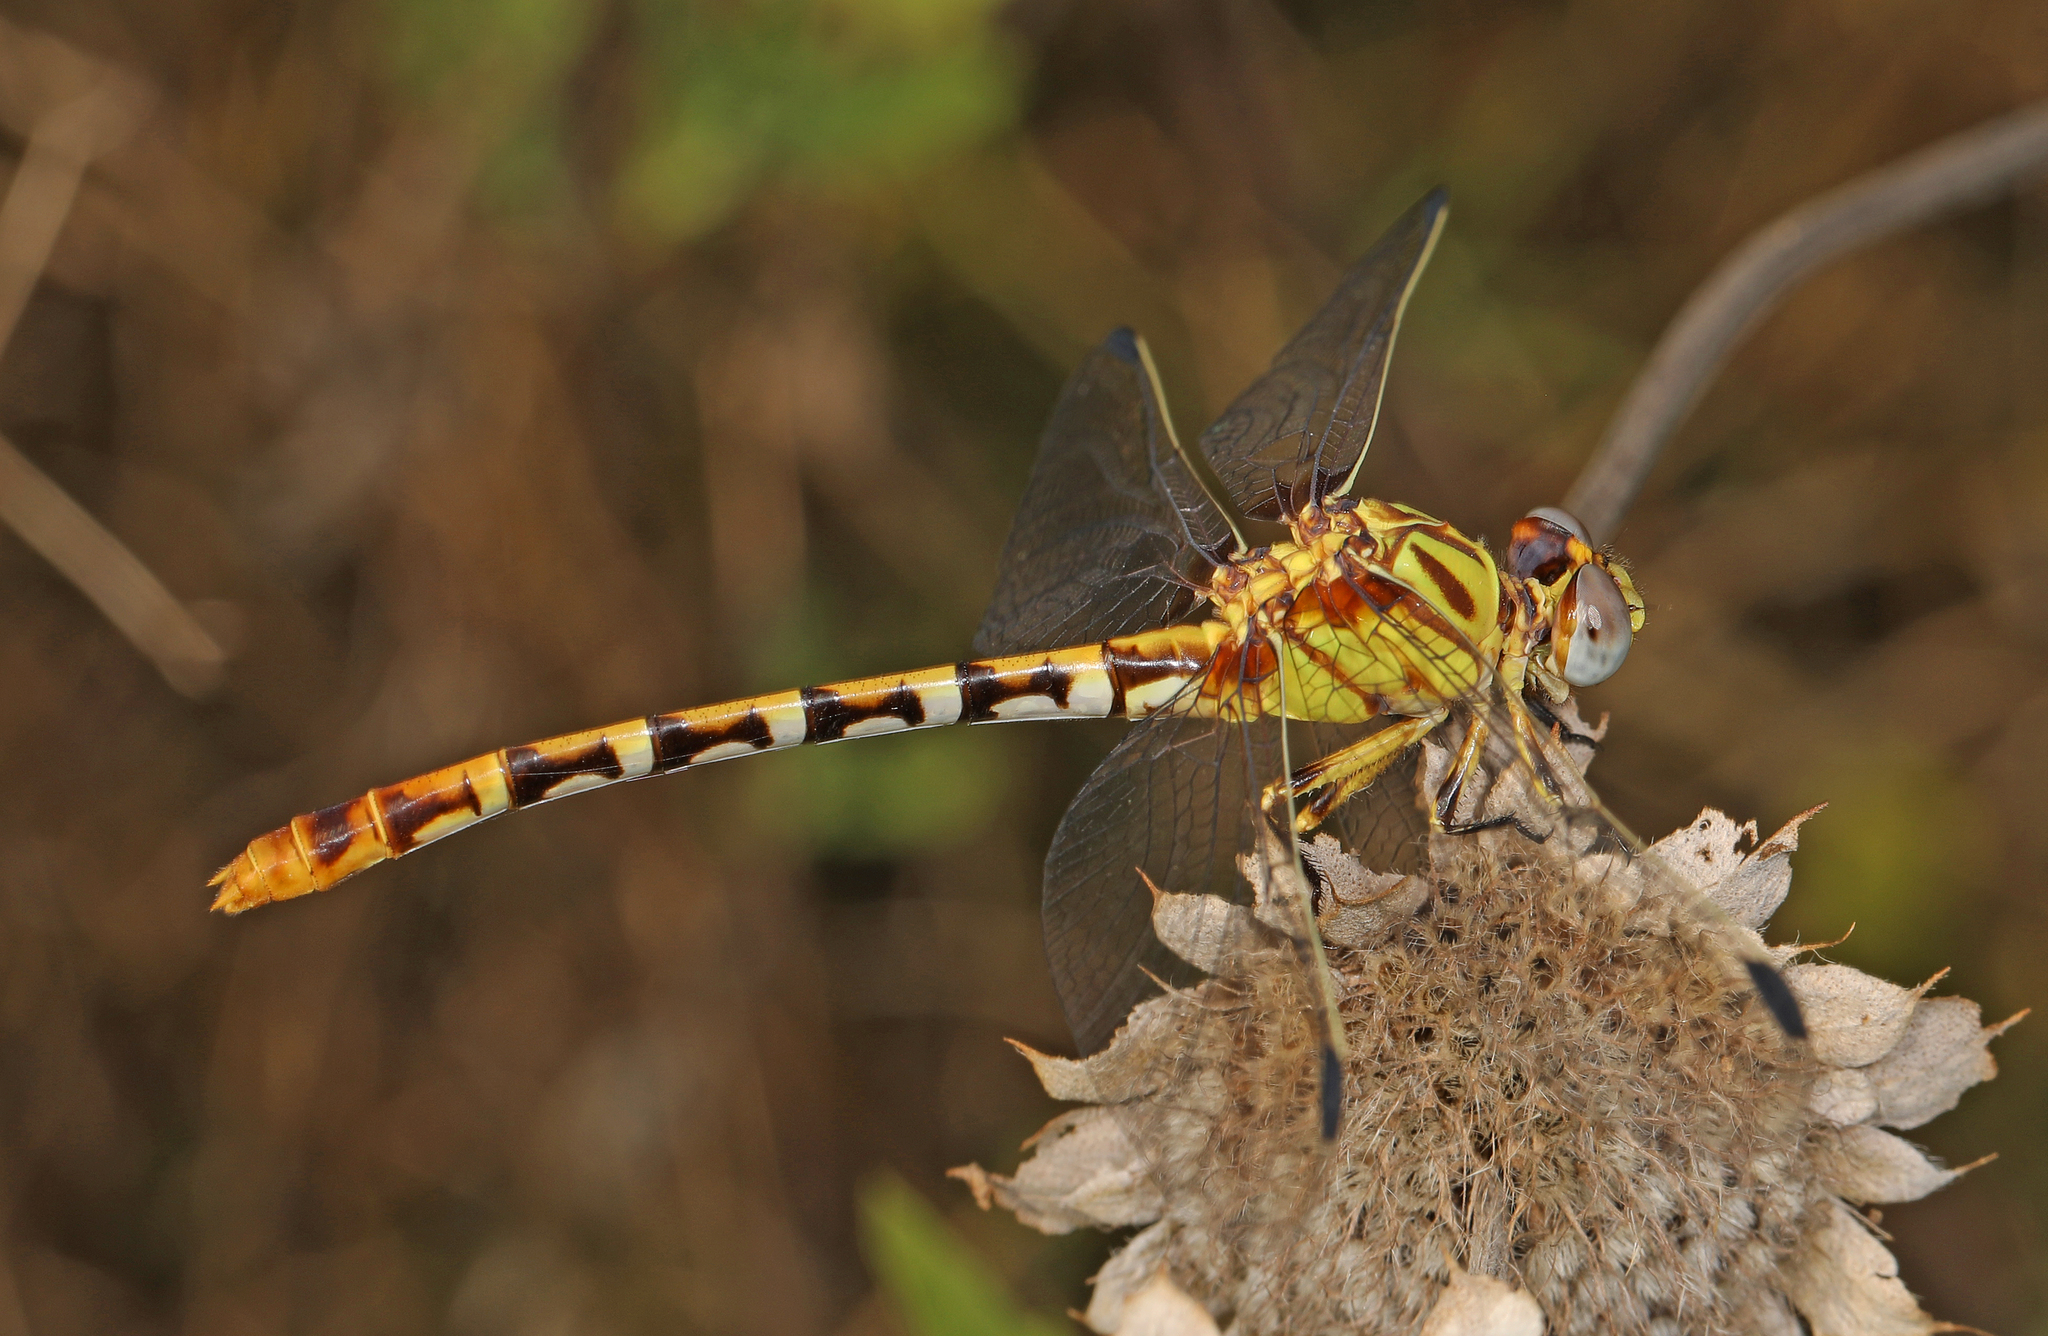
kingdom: Animalia
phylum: Arthropoda
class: Insecta
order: Odonata
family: Gomphidae
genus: Erpetogomphus
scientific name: Erpetogomphus designatus
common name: Eastern ringtail
